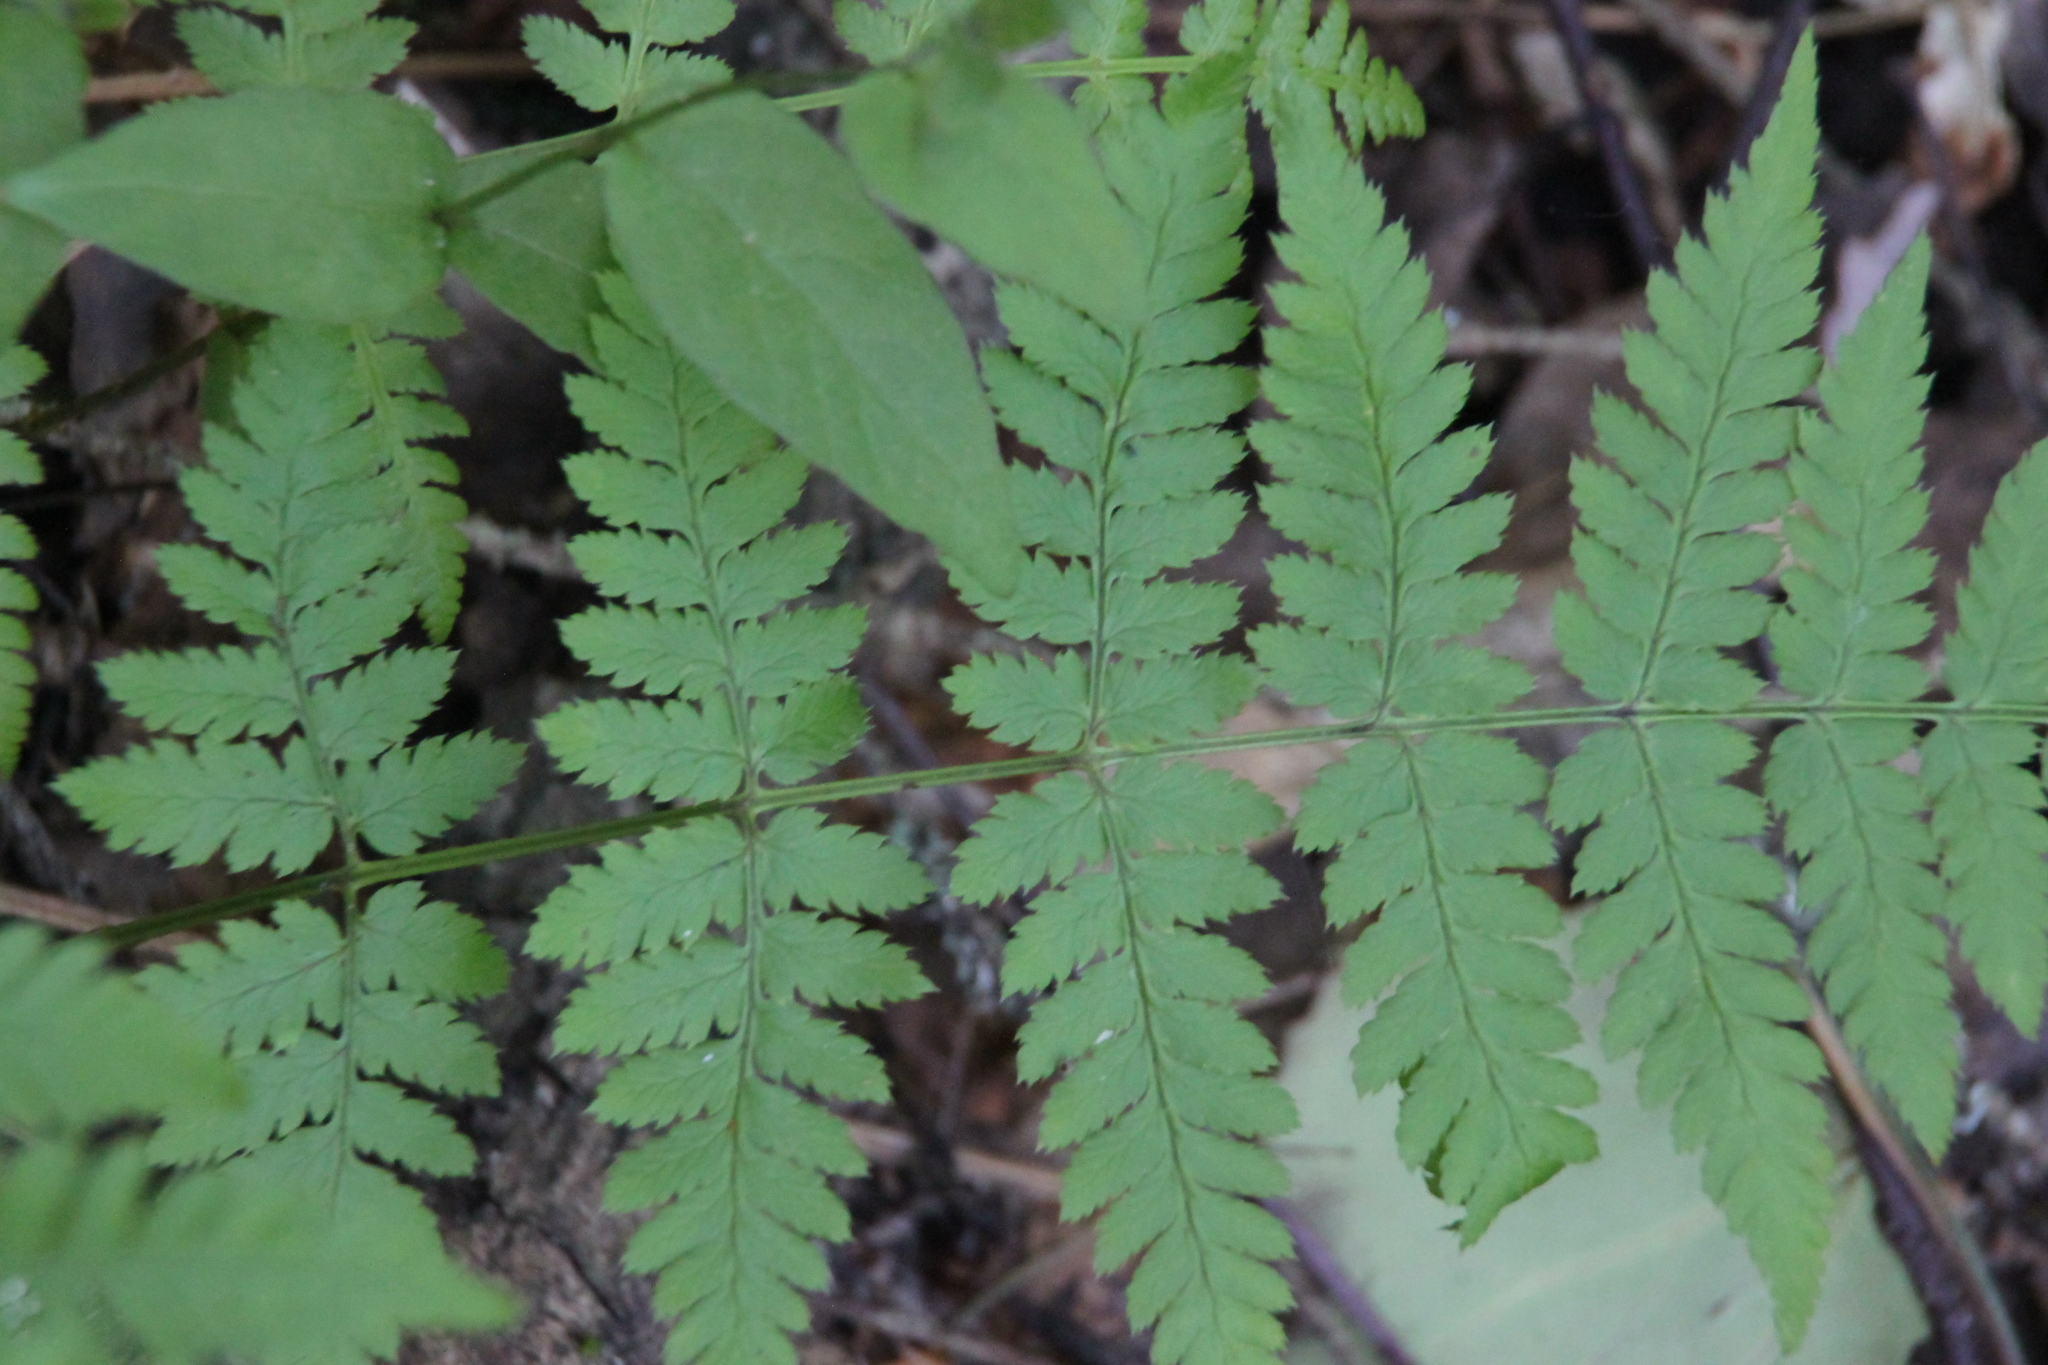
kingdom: Plantae
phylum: Tracheophyta
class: Polypodiopsida
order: Polypodiales
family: Dryopteridaceae
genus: Dryopteris
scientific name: Dryopteris carthusiana
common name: Narrow buckler-fern
